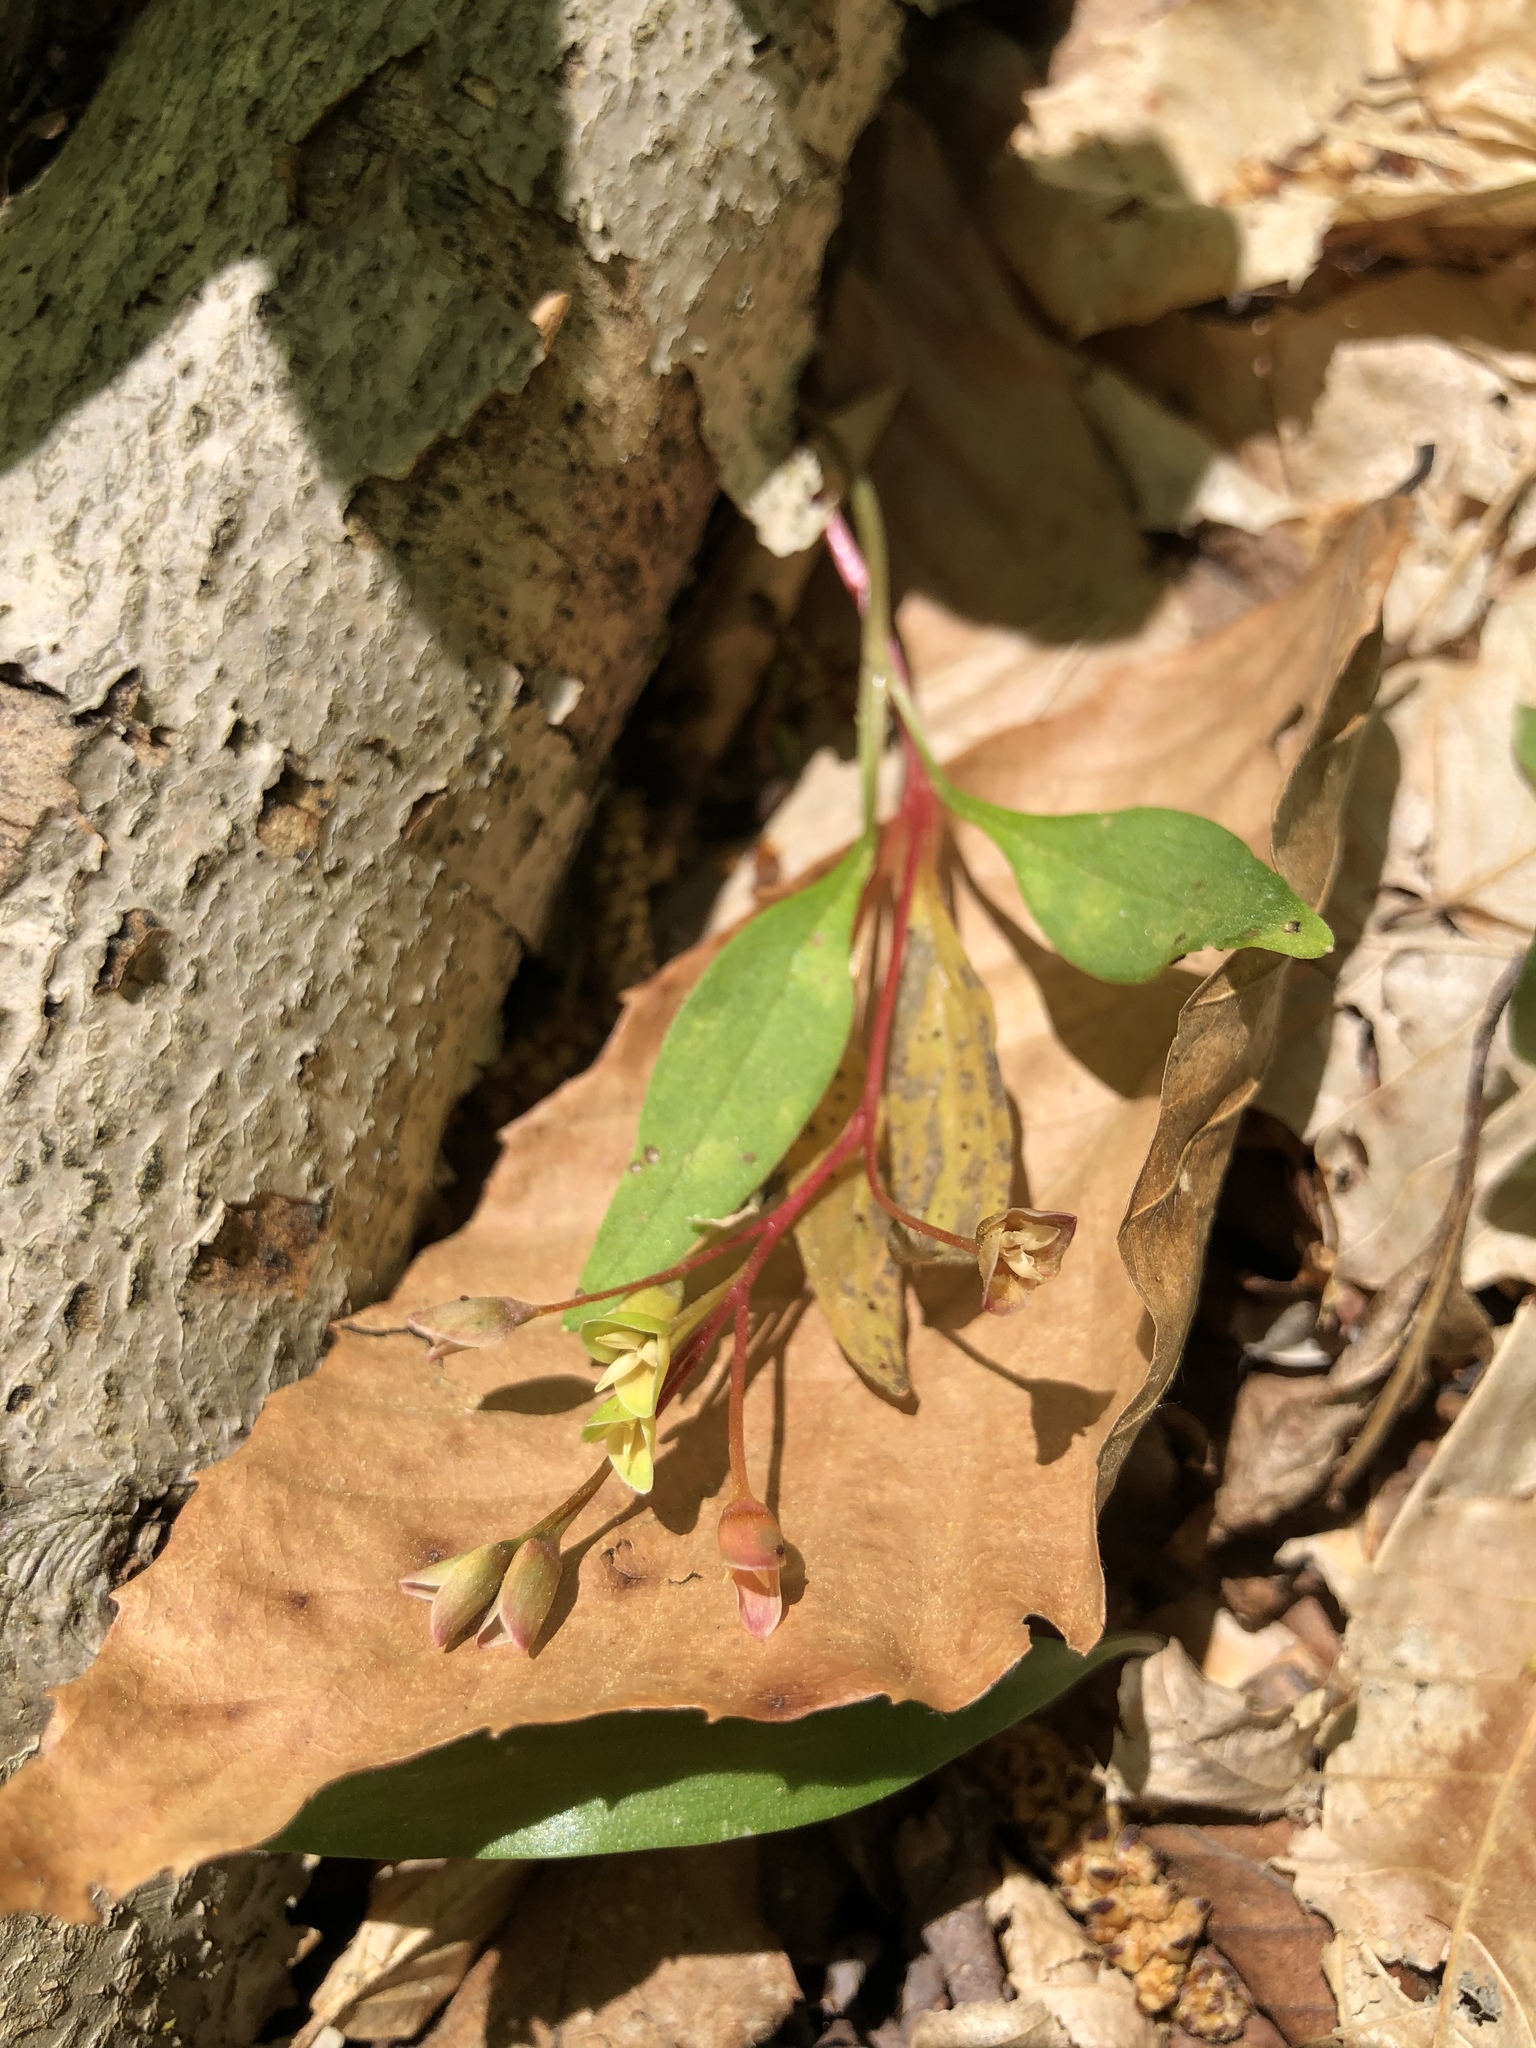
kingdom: Plantae
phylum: Tracheophyta
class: Magnoliopsida
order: Caryophyllales
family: Montiaceae
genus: Claytonia
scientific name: Claytonia caroliniana
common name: Carolina spring beauty
